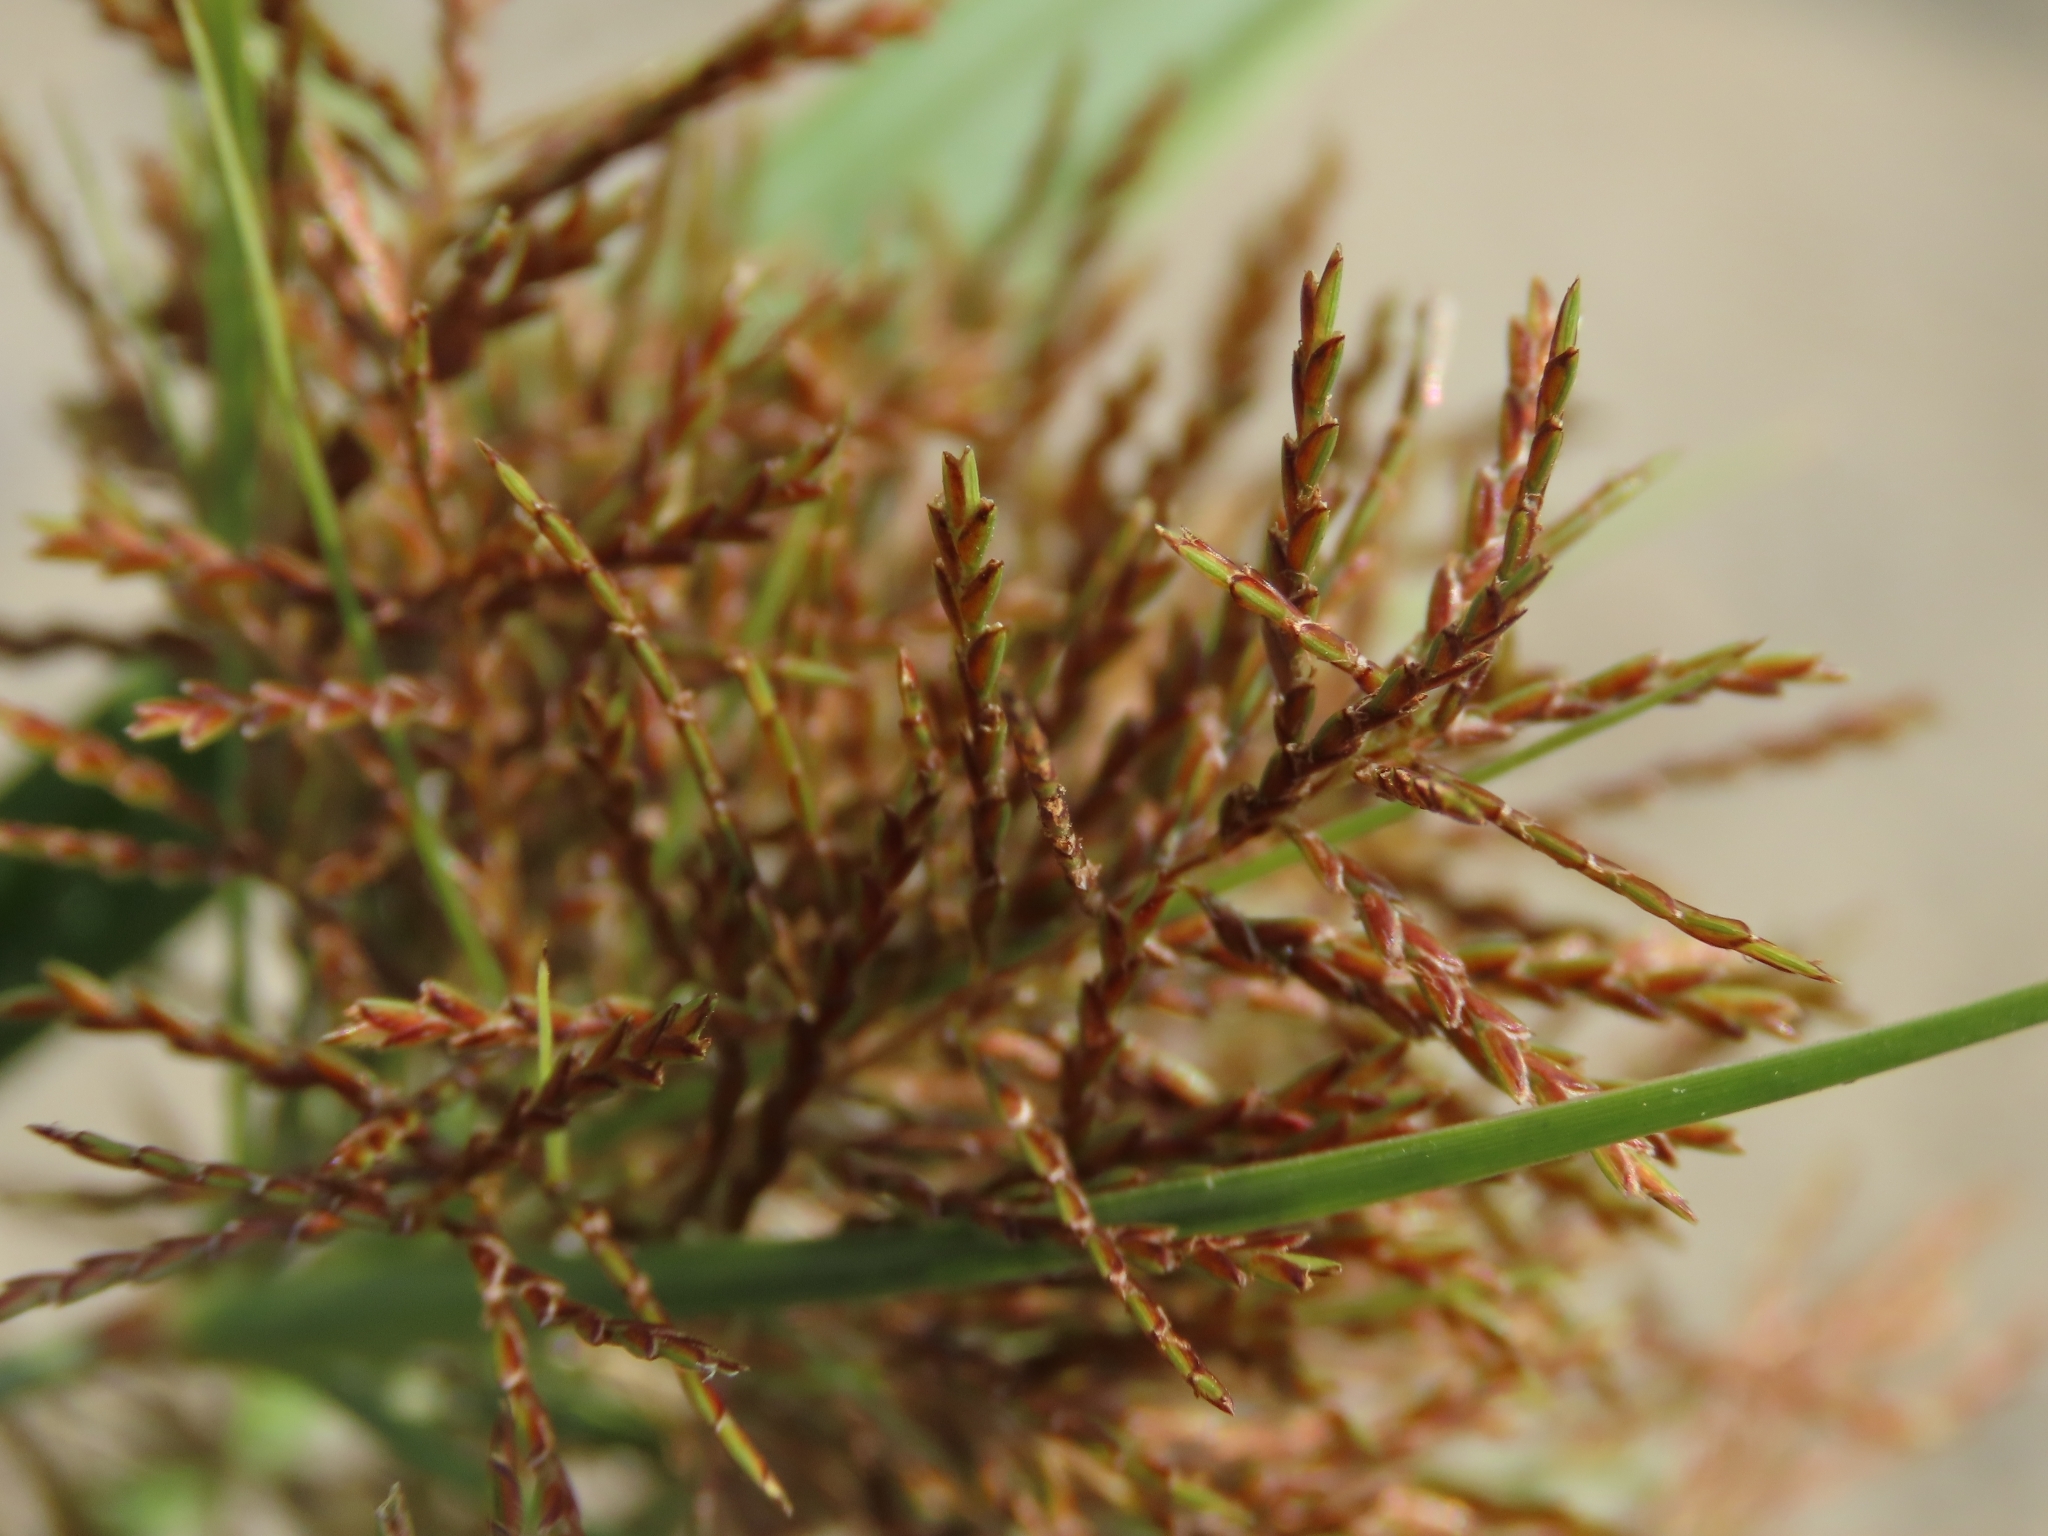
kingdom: Plantae
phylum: Tracheophyta
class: Liliopsida
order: Poales
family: Cyperaceae
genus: Cyperus
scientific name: Cyperus odoratus
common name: Fragrant flatsedge
